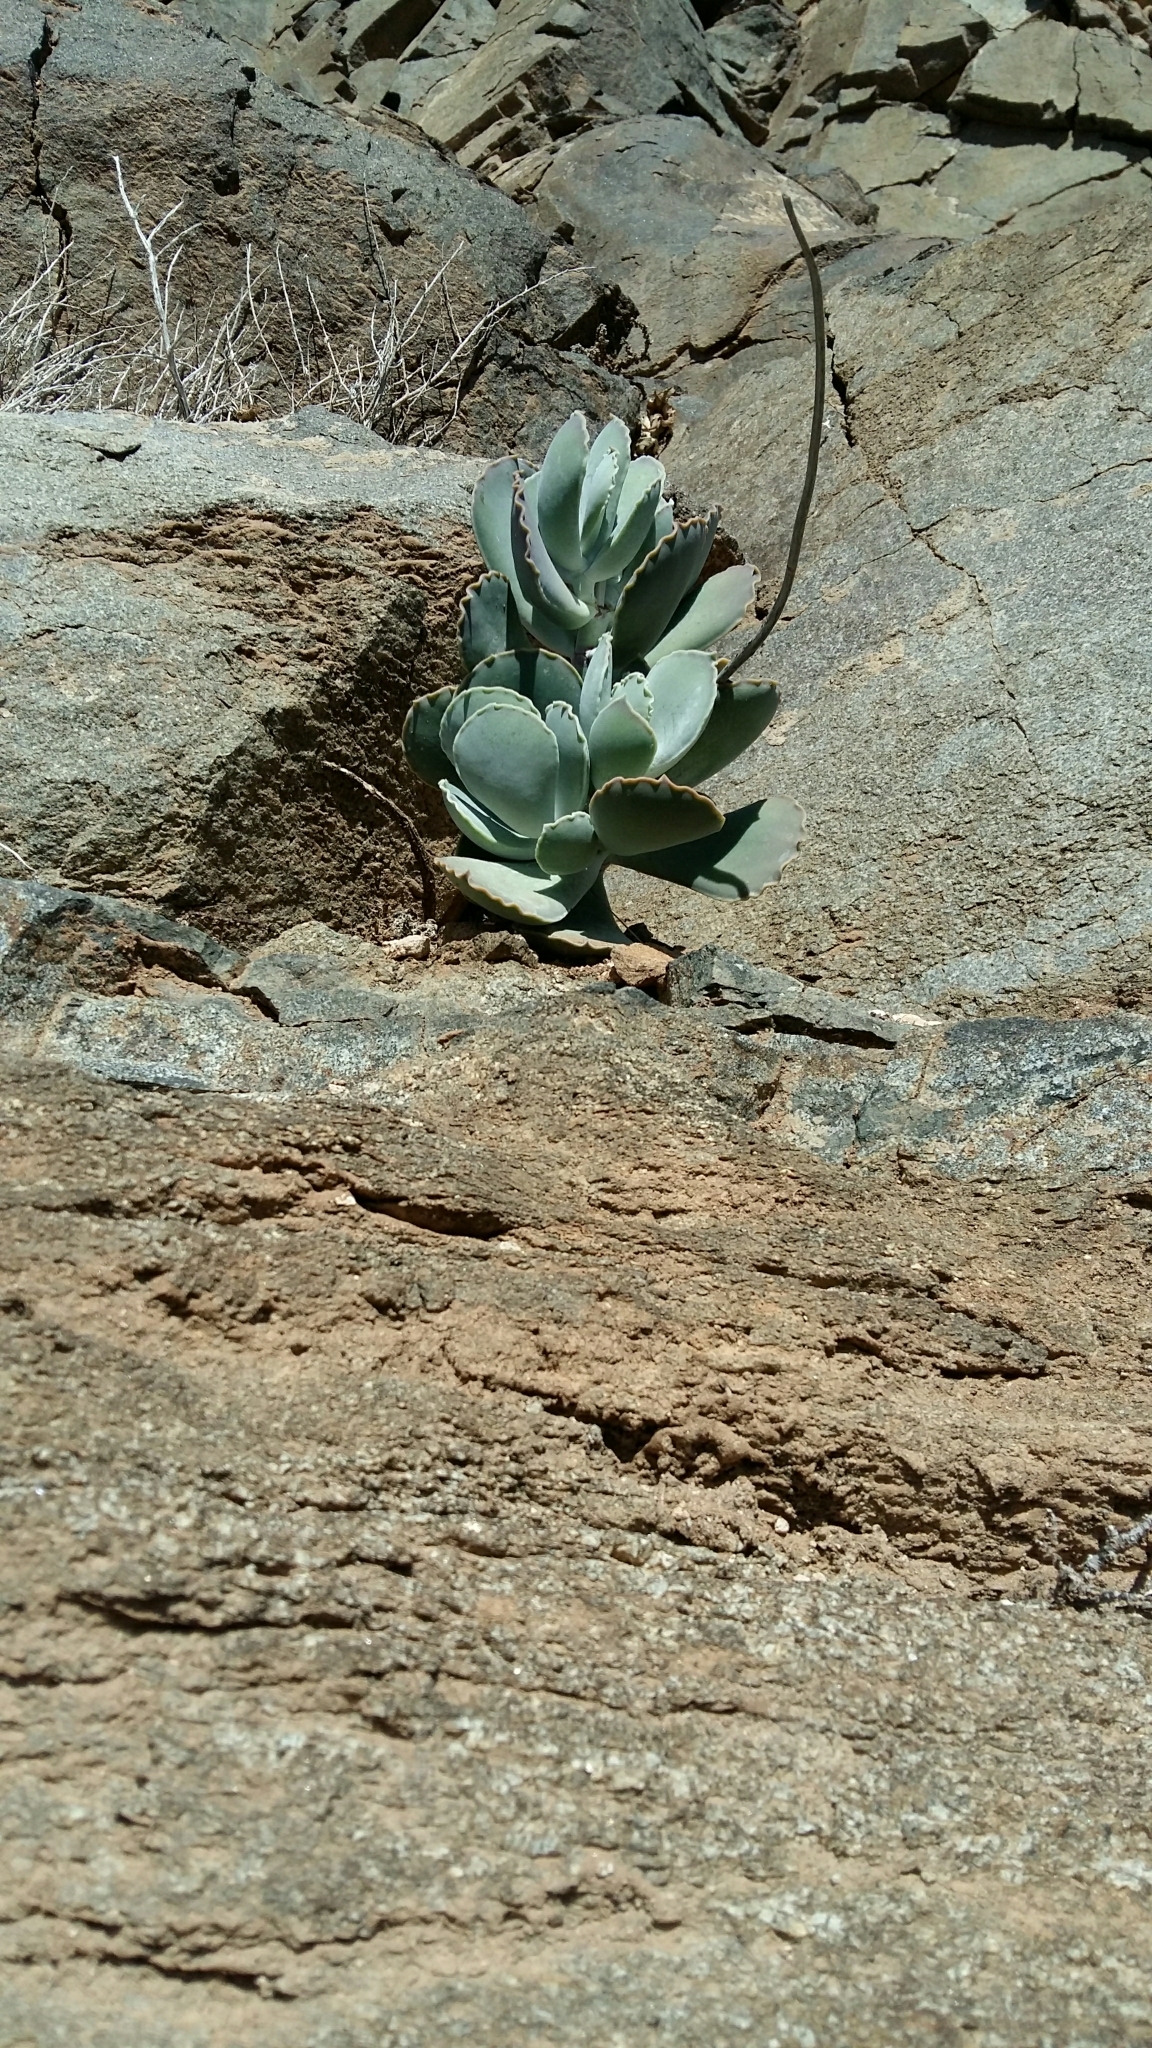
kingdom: Plantae
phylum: Tracheophyta
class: Magnoliopsida
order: Saxifragales
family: Crassulaceae
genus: Cotyledon
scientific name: Cotyledon orbiculata
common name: Pig's ear
